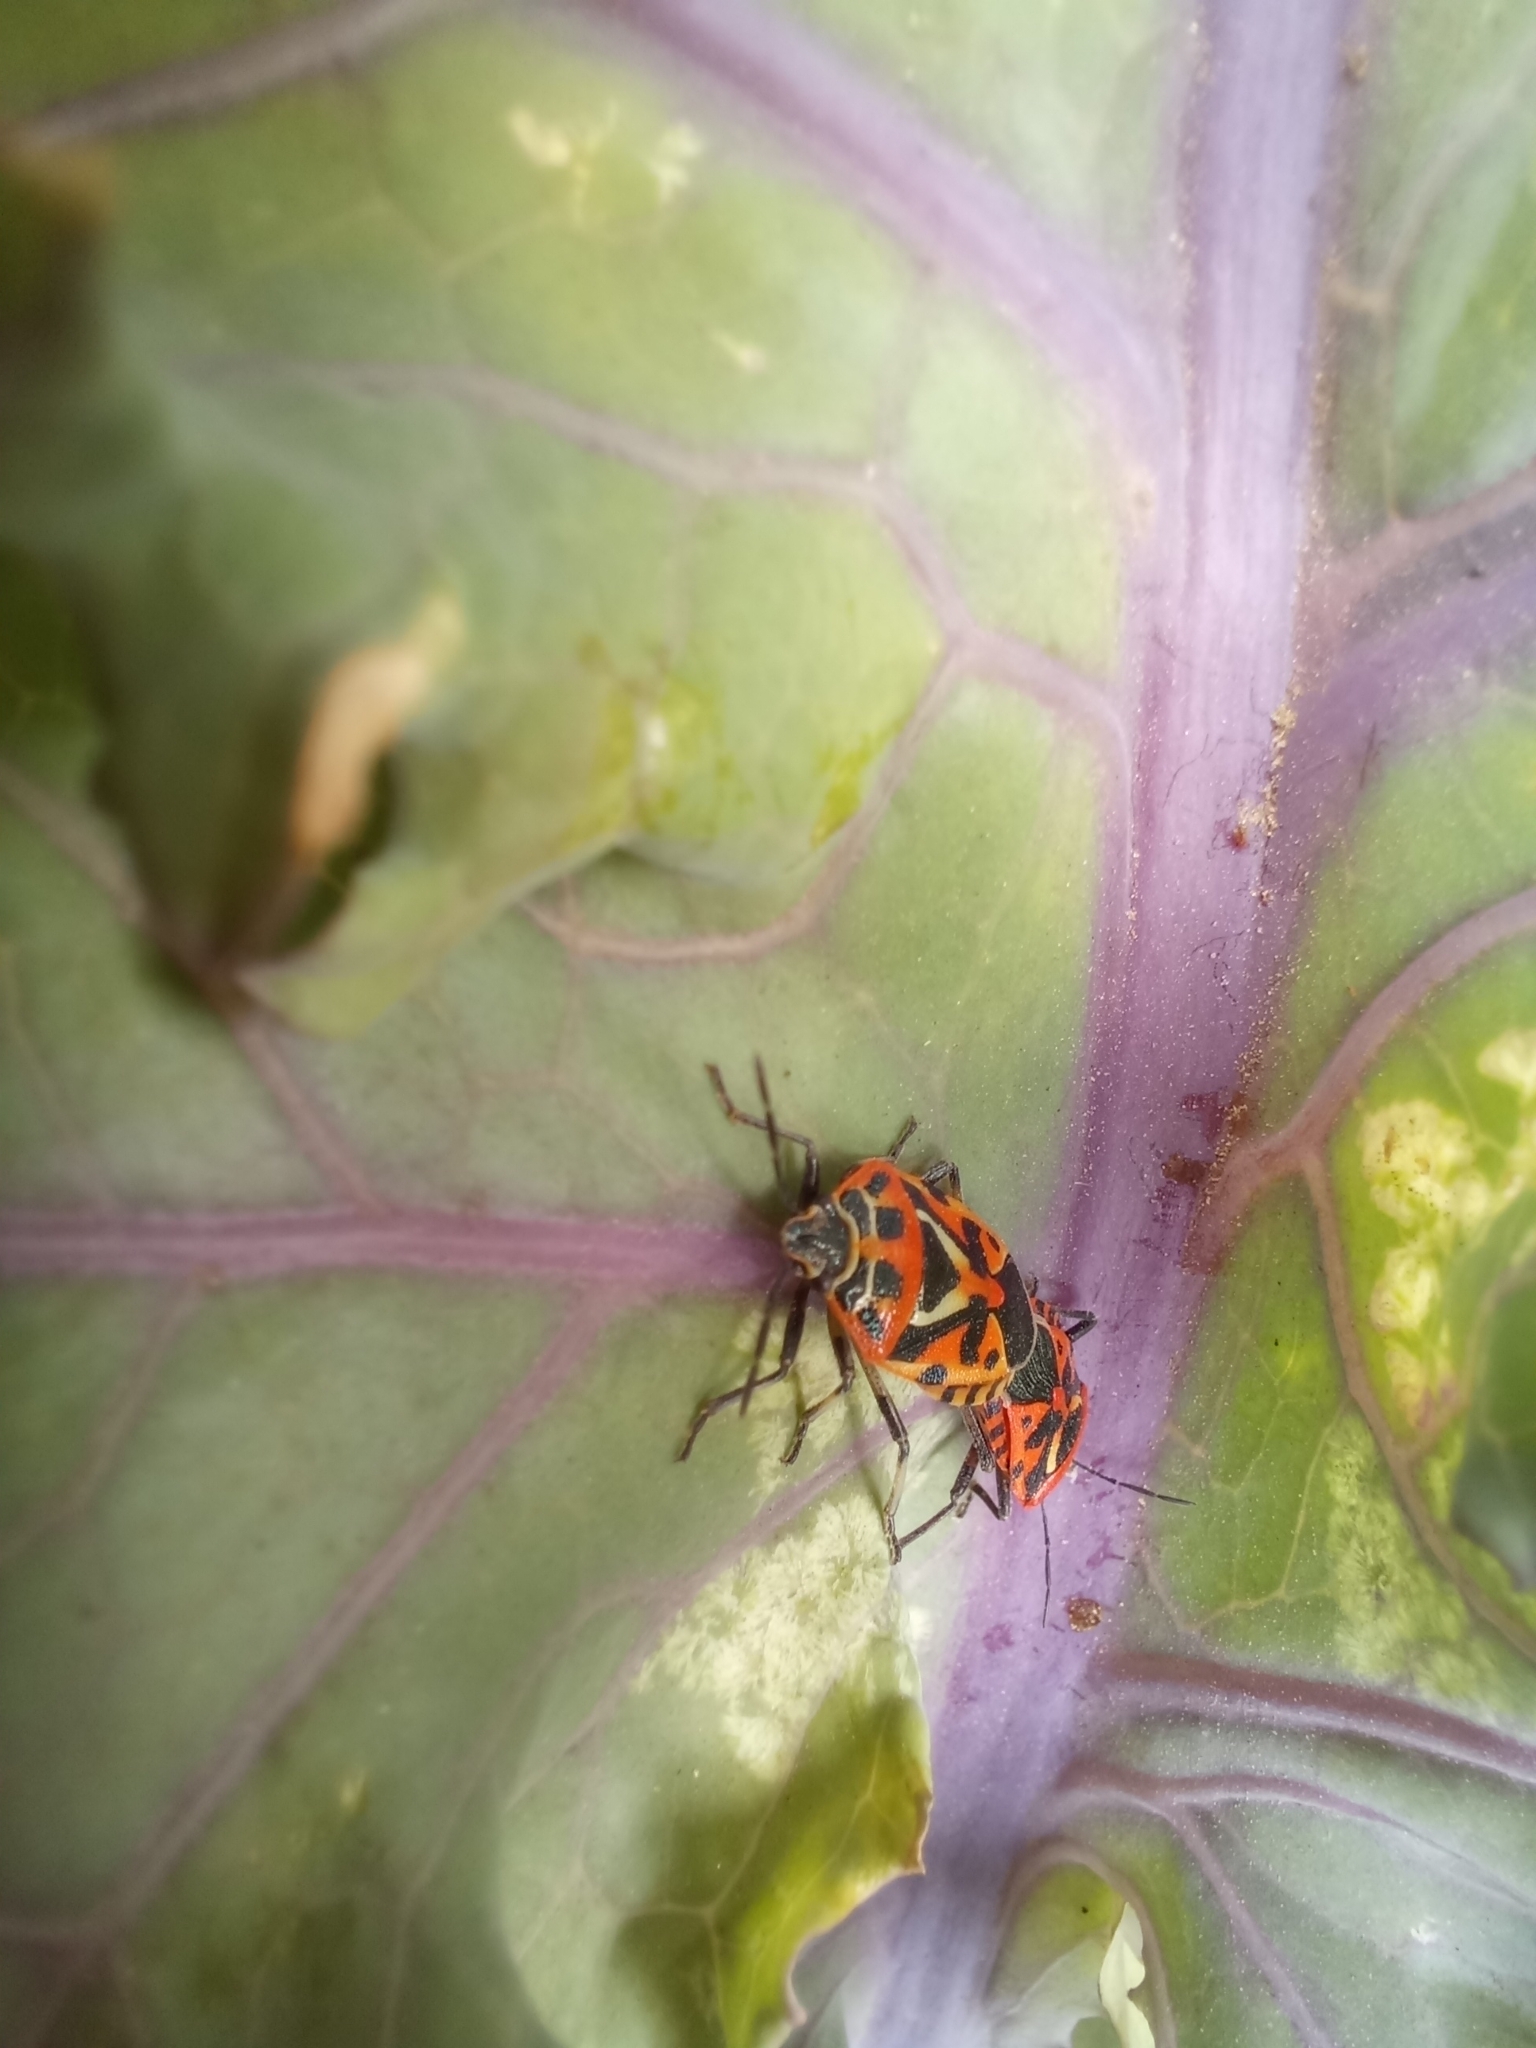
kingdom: Animalia
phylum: Arthropoda
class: Insecta
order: Hemiptera
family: Pentatomidae
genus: Eurydema
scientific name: Eurydema ventralis
